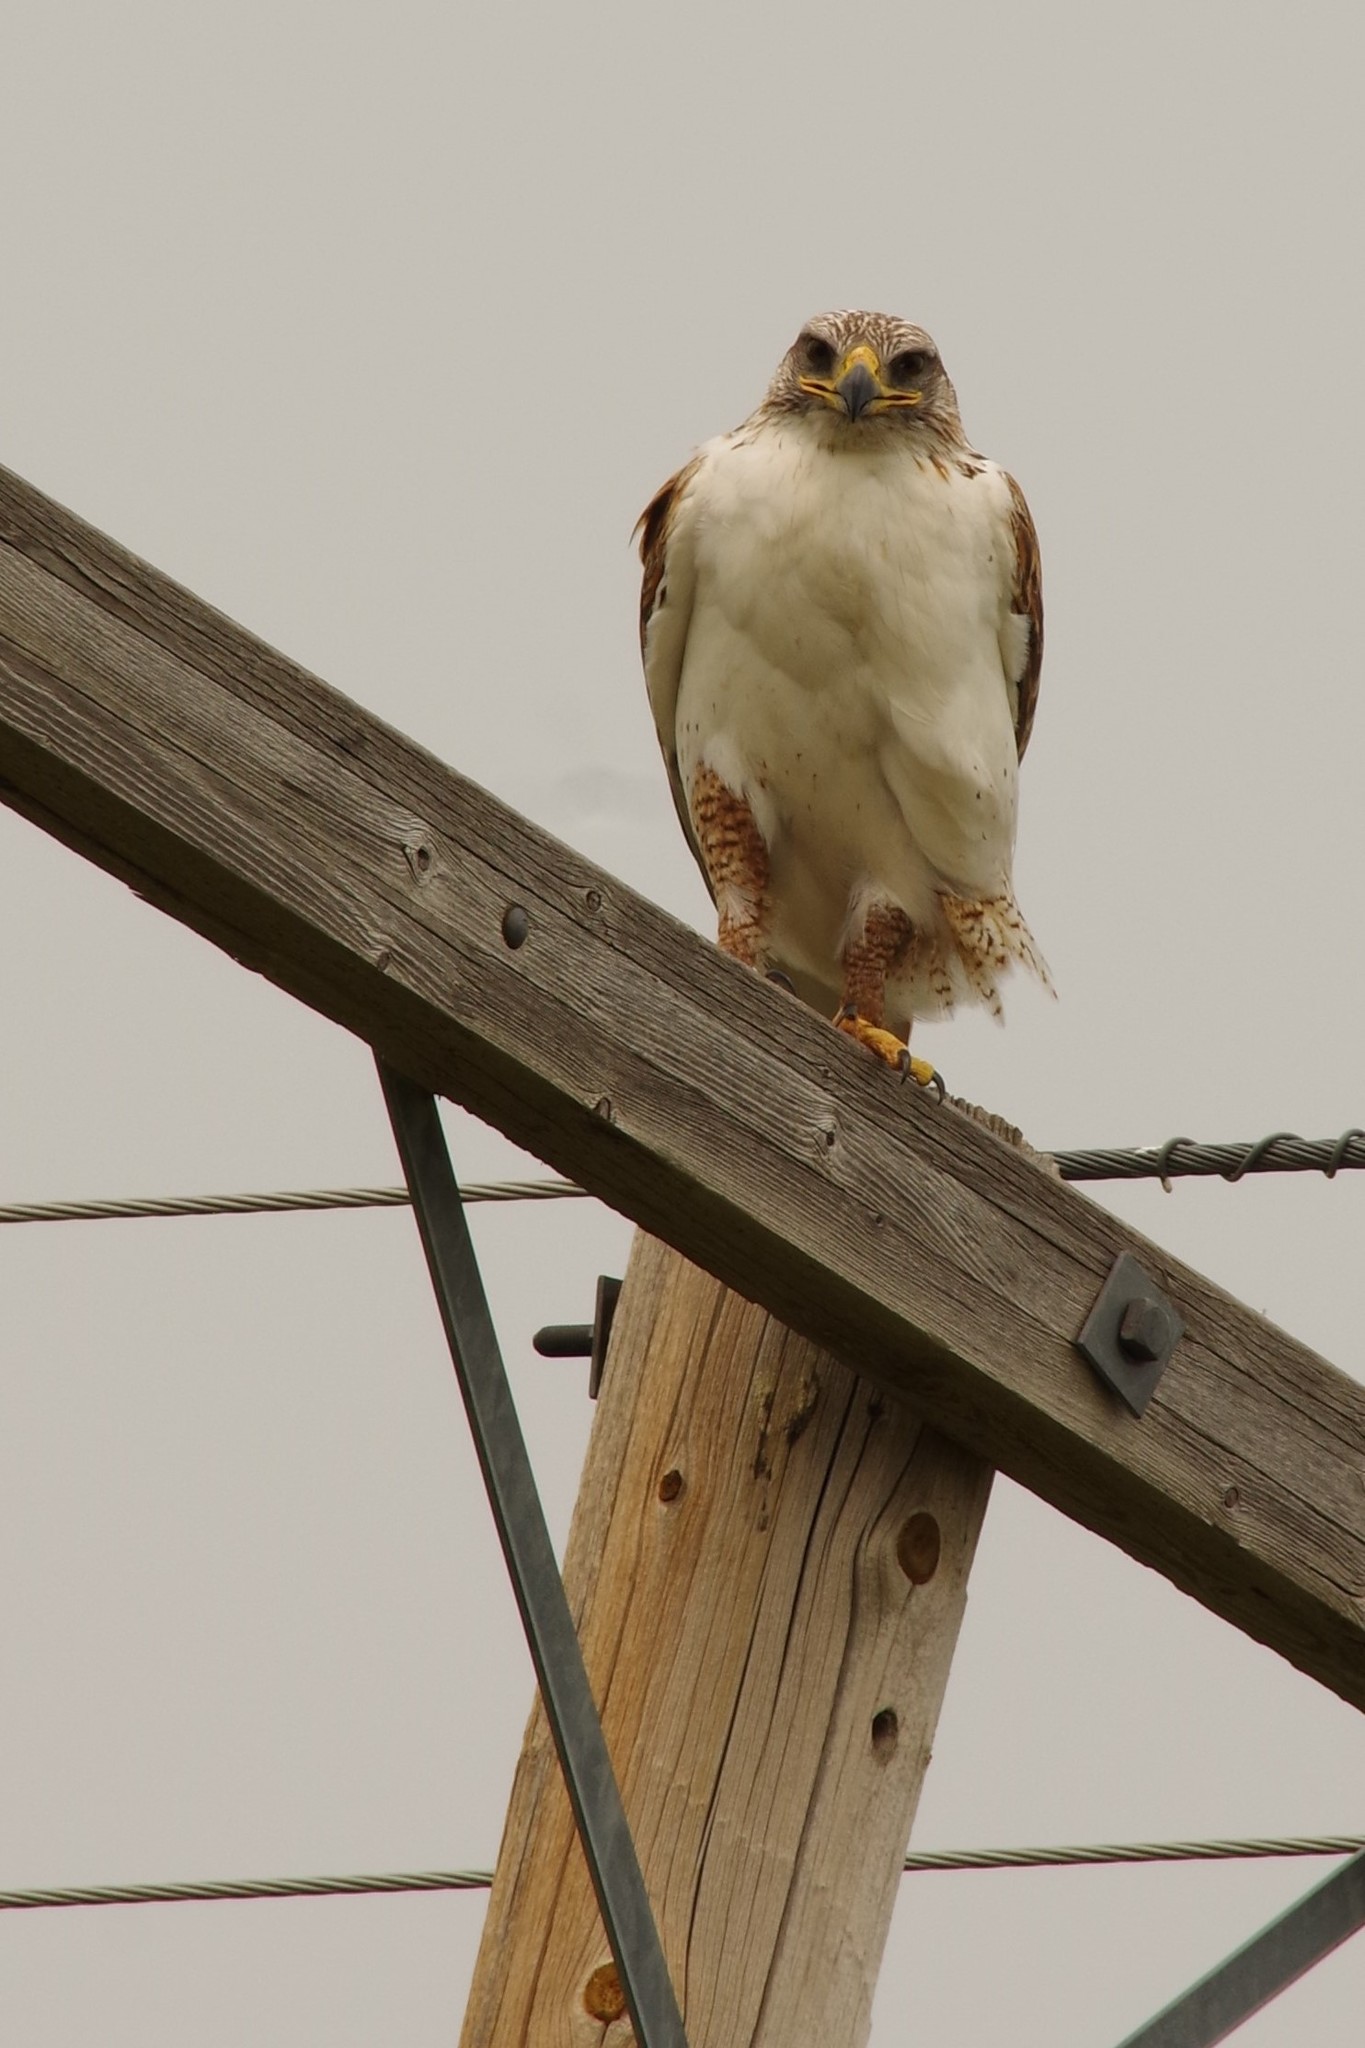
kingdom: Animalia
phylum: Chordata
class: Aves
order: Accipitriformes
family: Accipitridae
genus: Buteo
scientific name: Buteo regalis
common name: Ferruginous hawk
